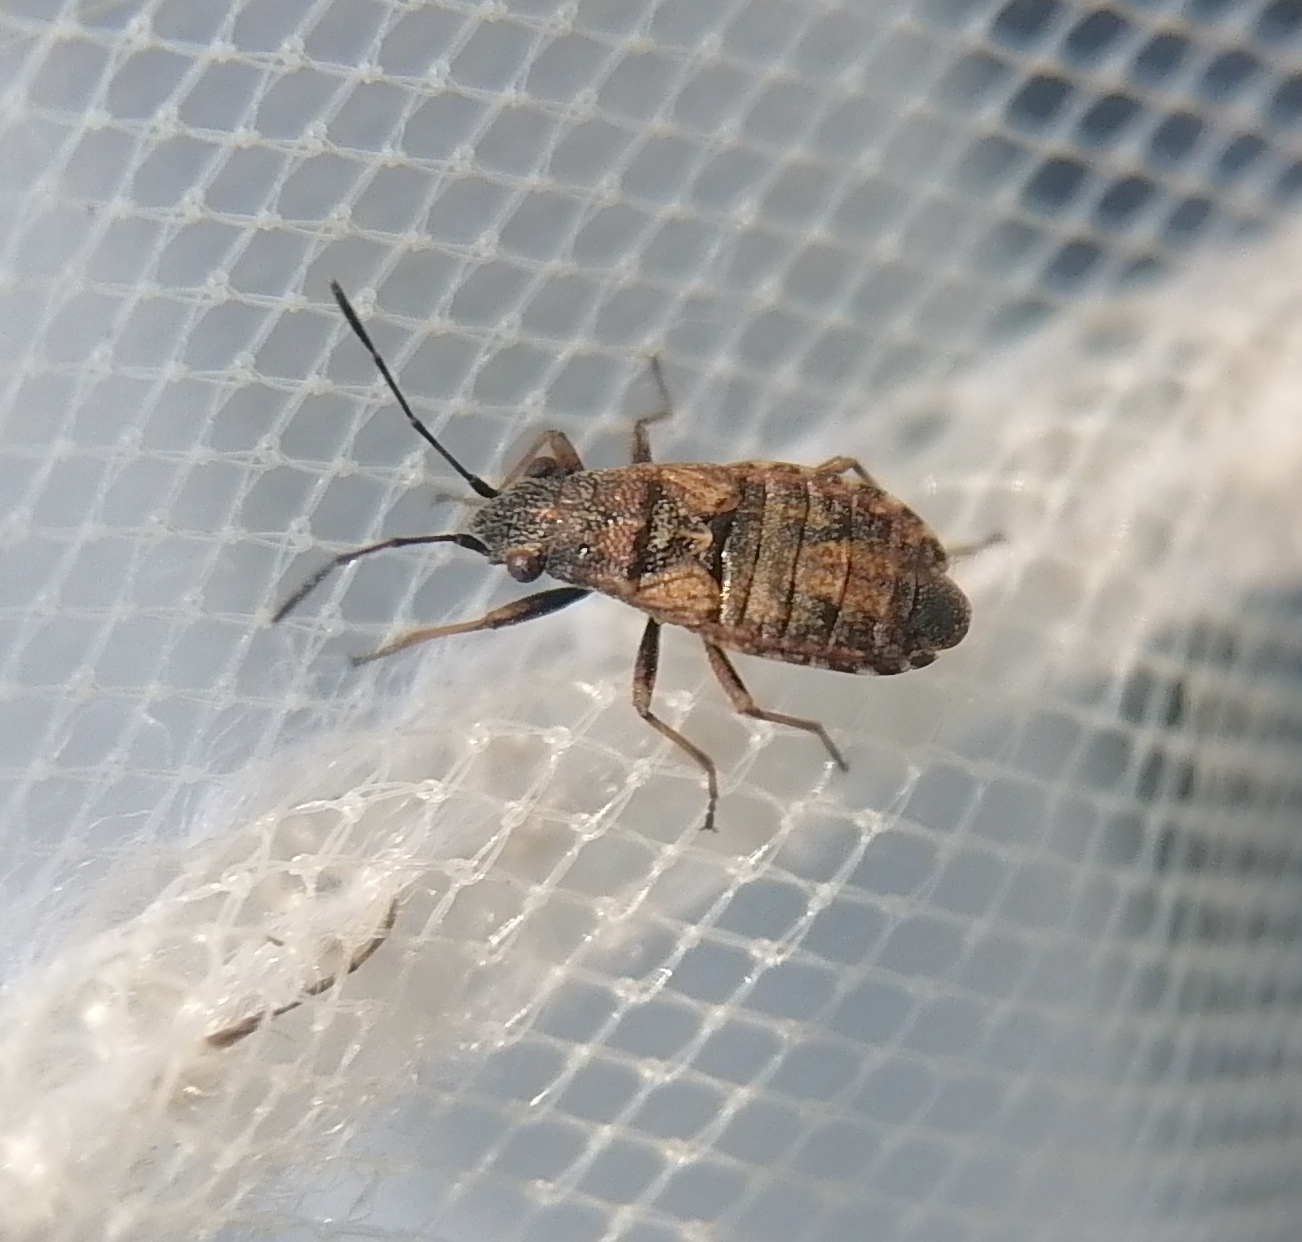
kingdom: Animalia
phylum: Arthropoda
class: Insecta
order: Hemiptera
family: Lygaeidae
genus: Nithecus
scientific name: Nithecus jacobaeae
